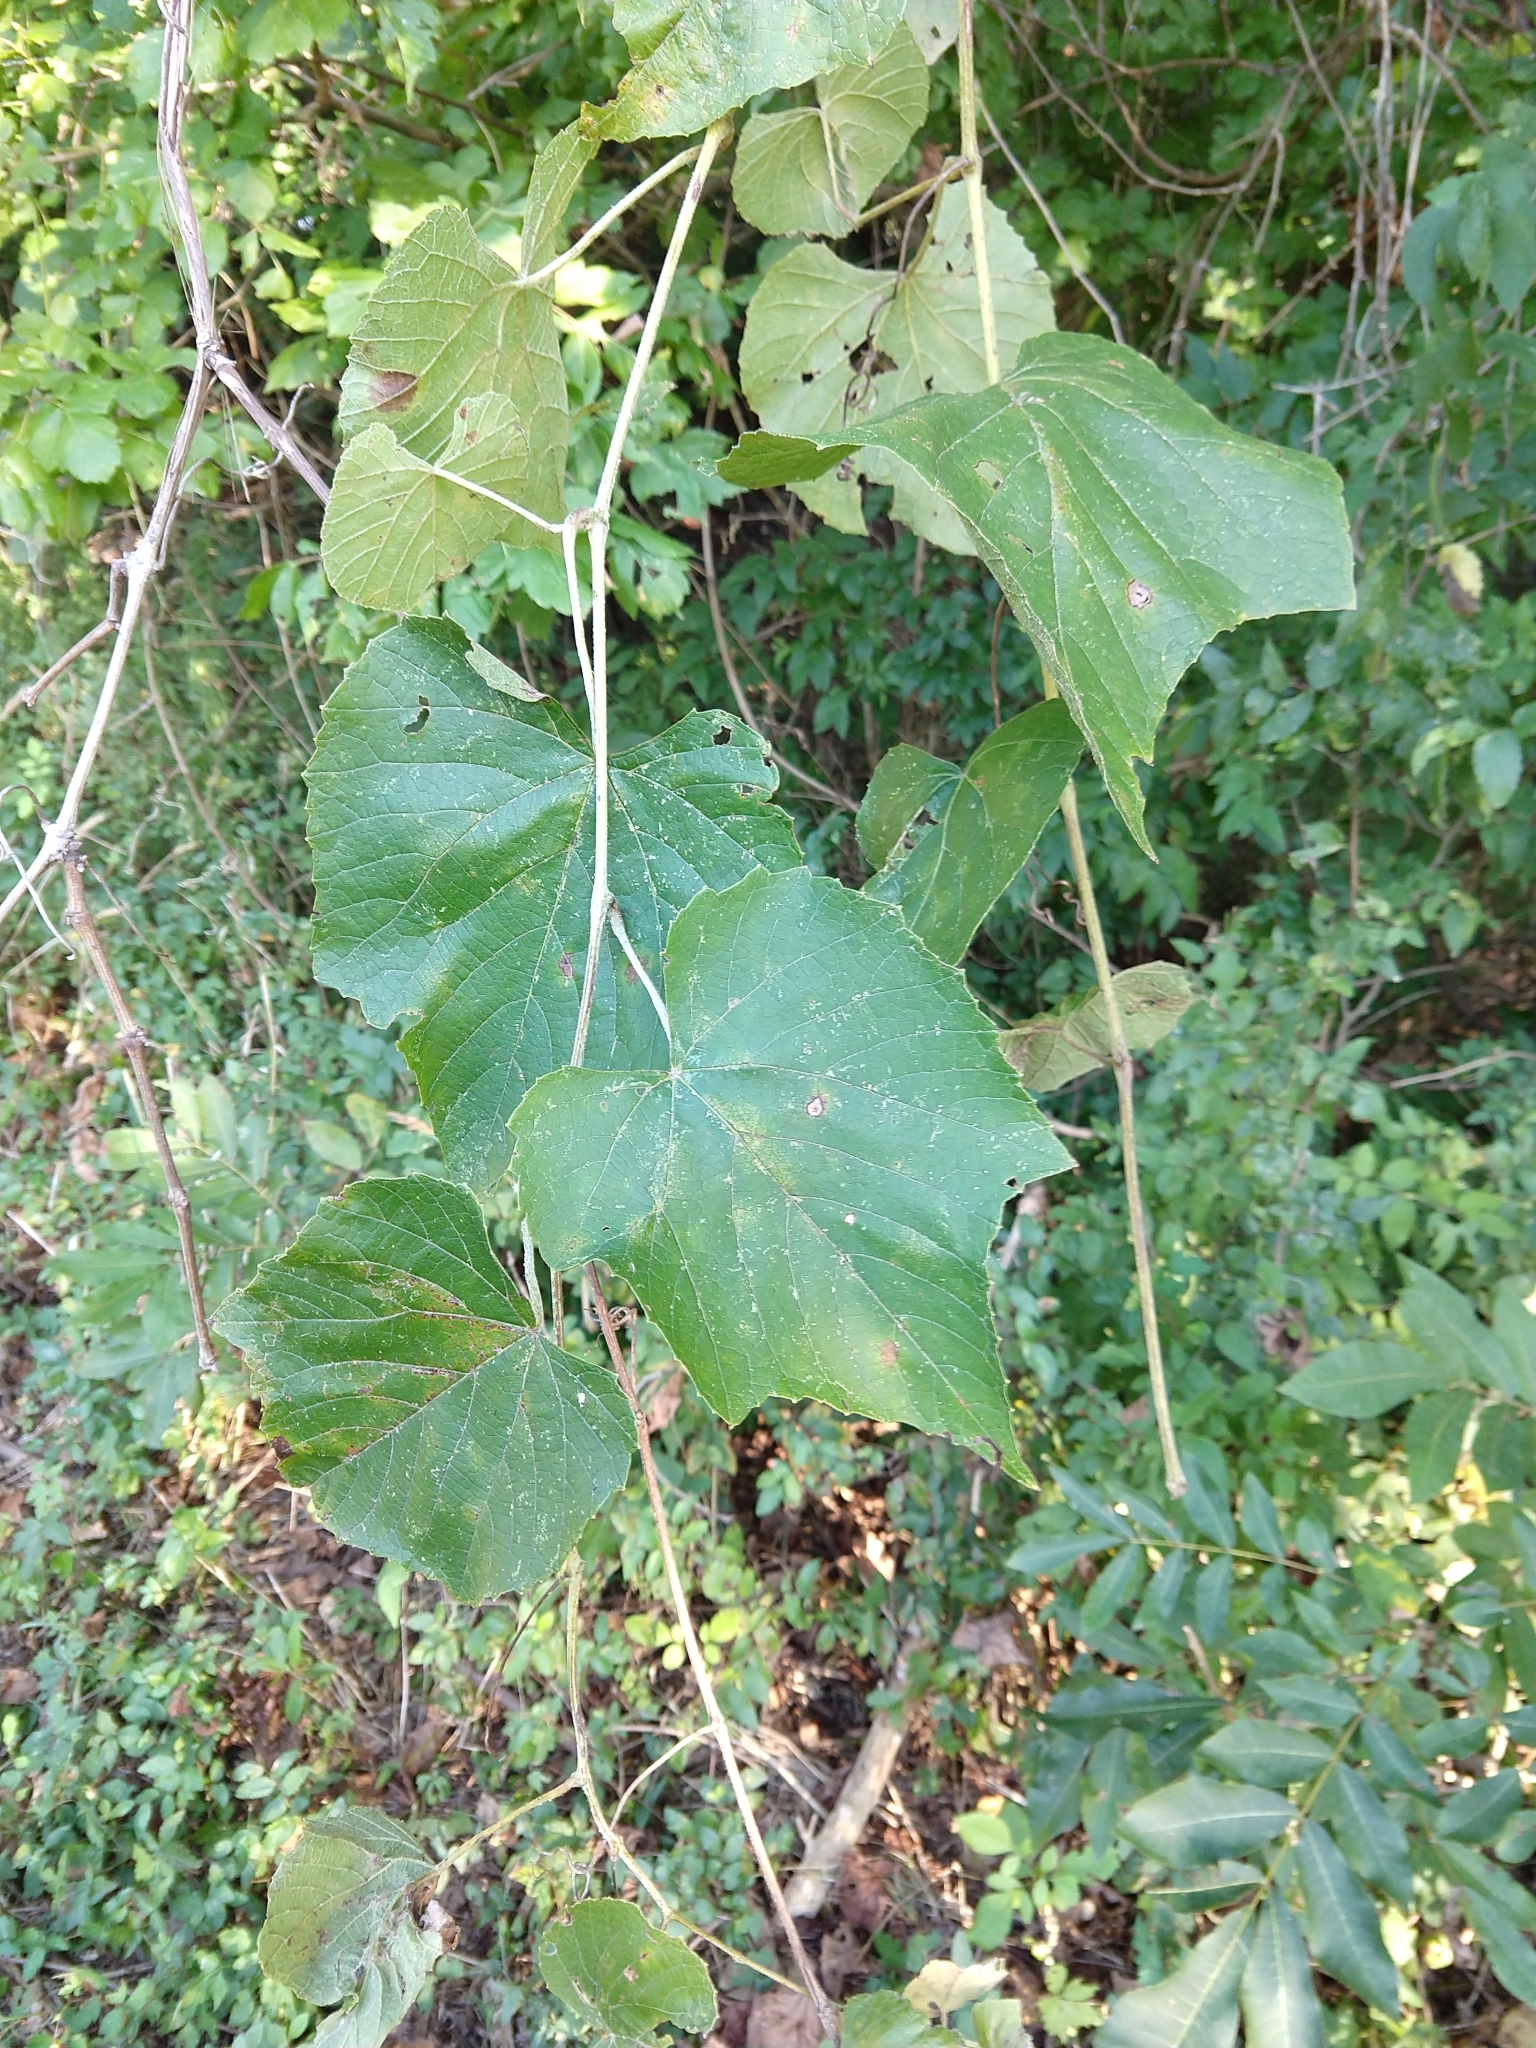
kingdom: Plantae
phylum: Tracheophyta
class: Magnoliopsida
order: Vitales
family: Vitaceae
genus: Vitis
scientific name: Vitis cinerea
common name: Ashy grape
